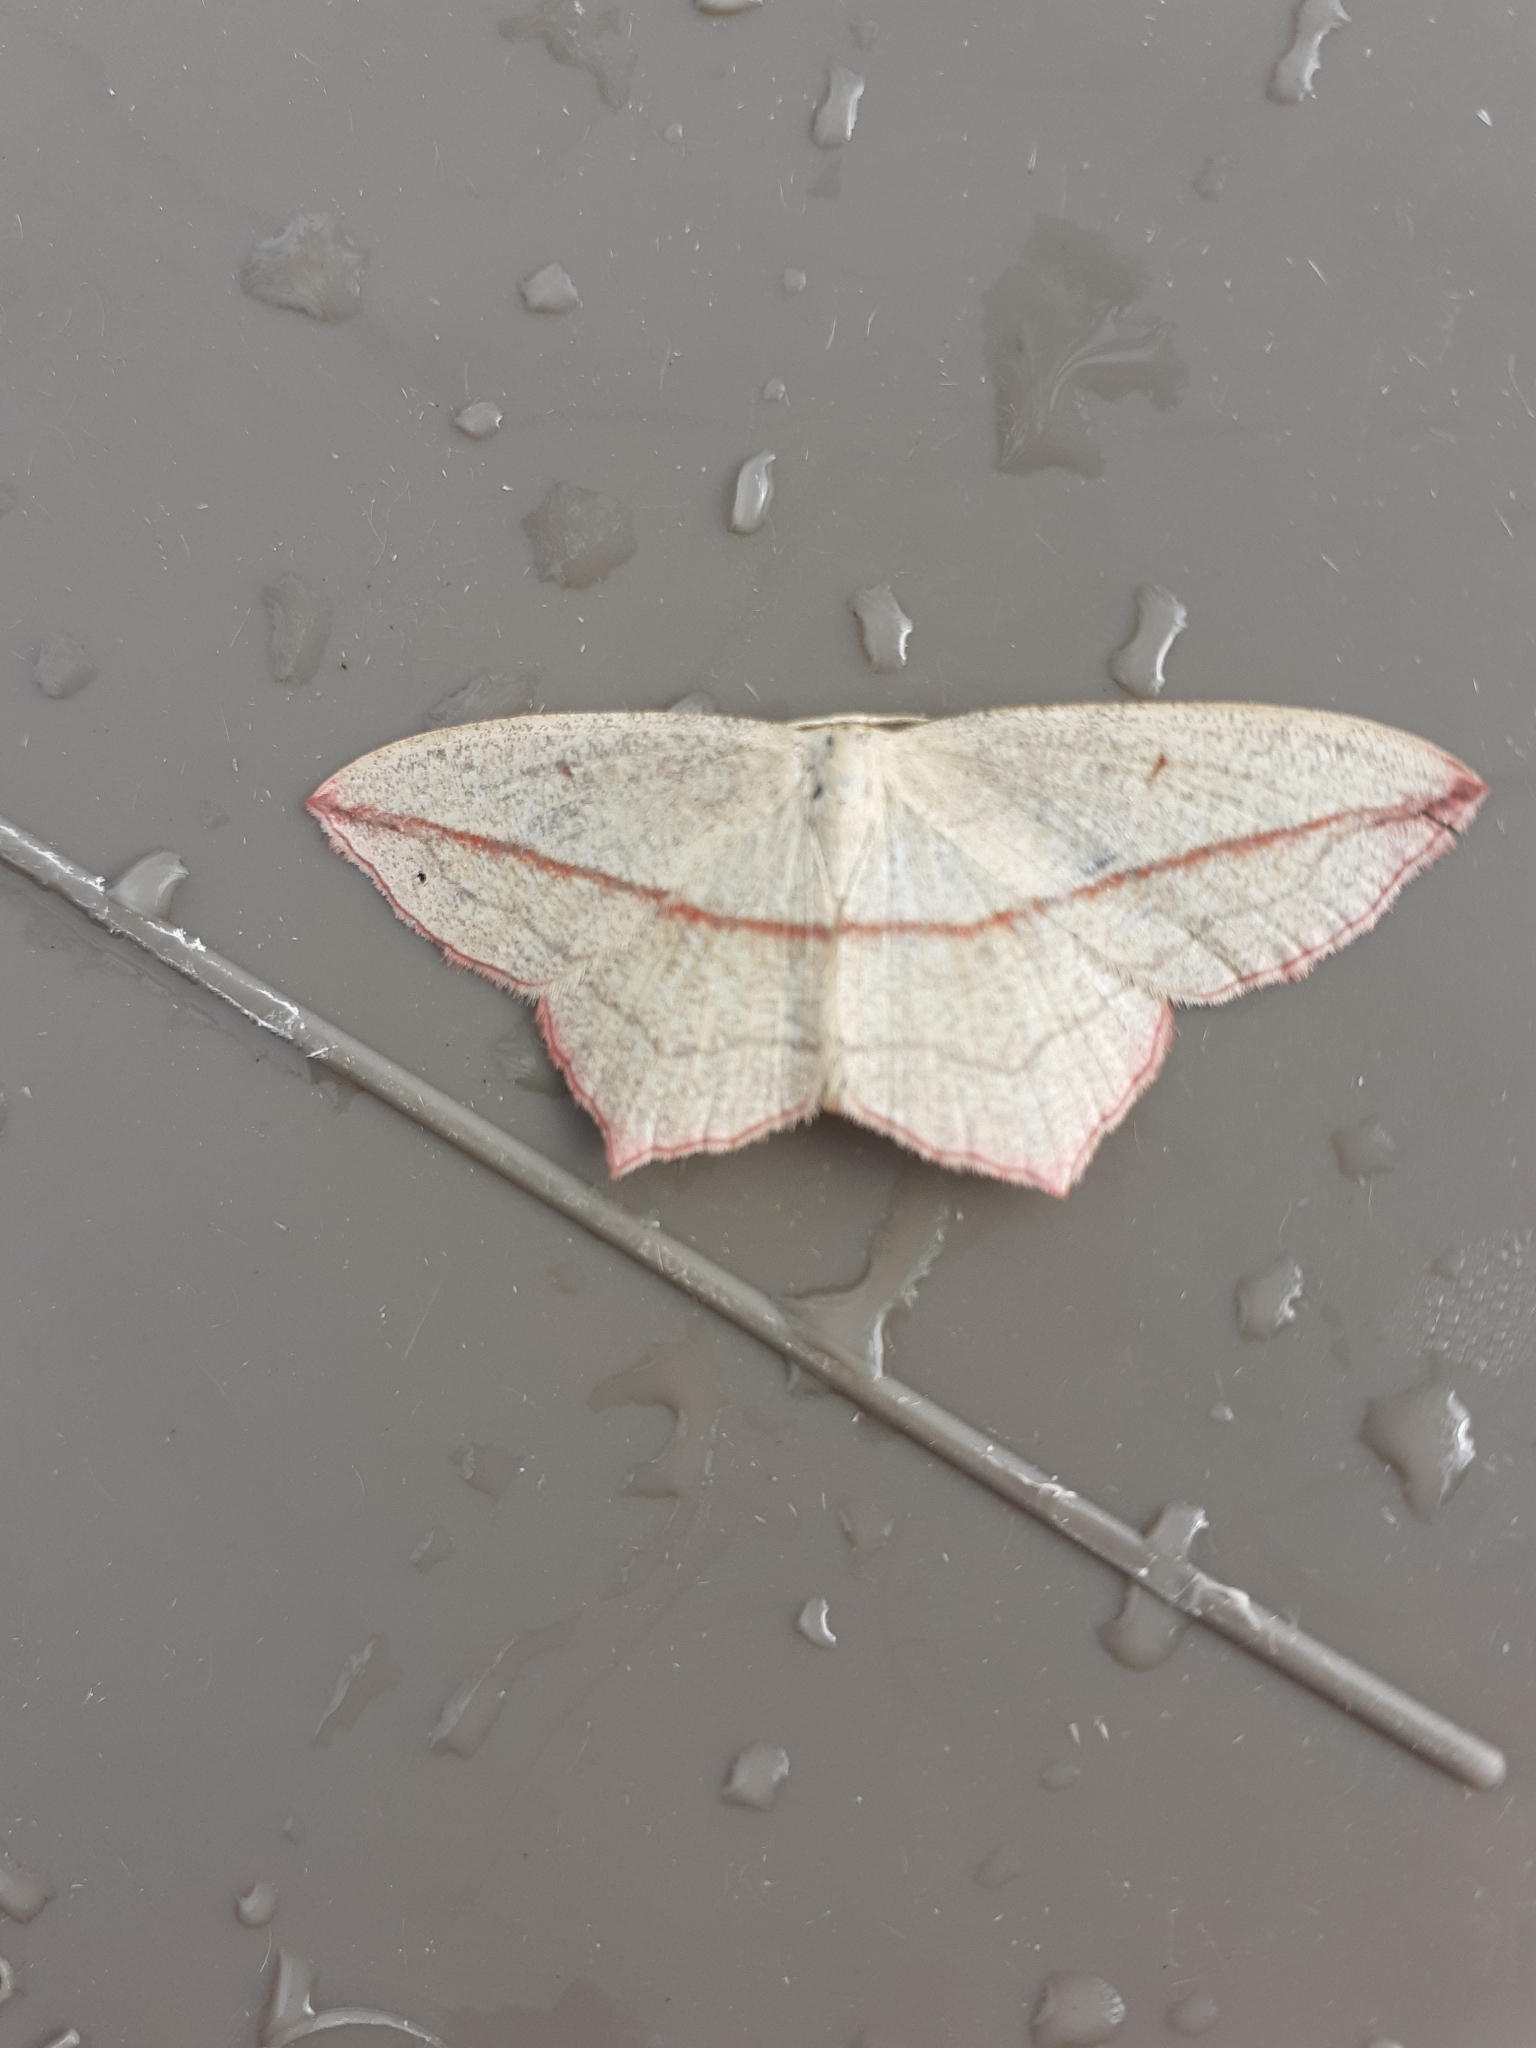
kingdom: Animalia
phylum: Arthropoda
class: Insecta
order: Lepidoptera
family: Geometridae
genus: Timandra
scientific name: Timandra comae
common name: Blood-vein
